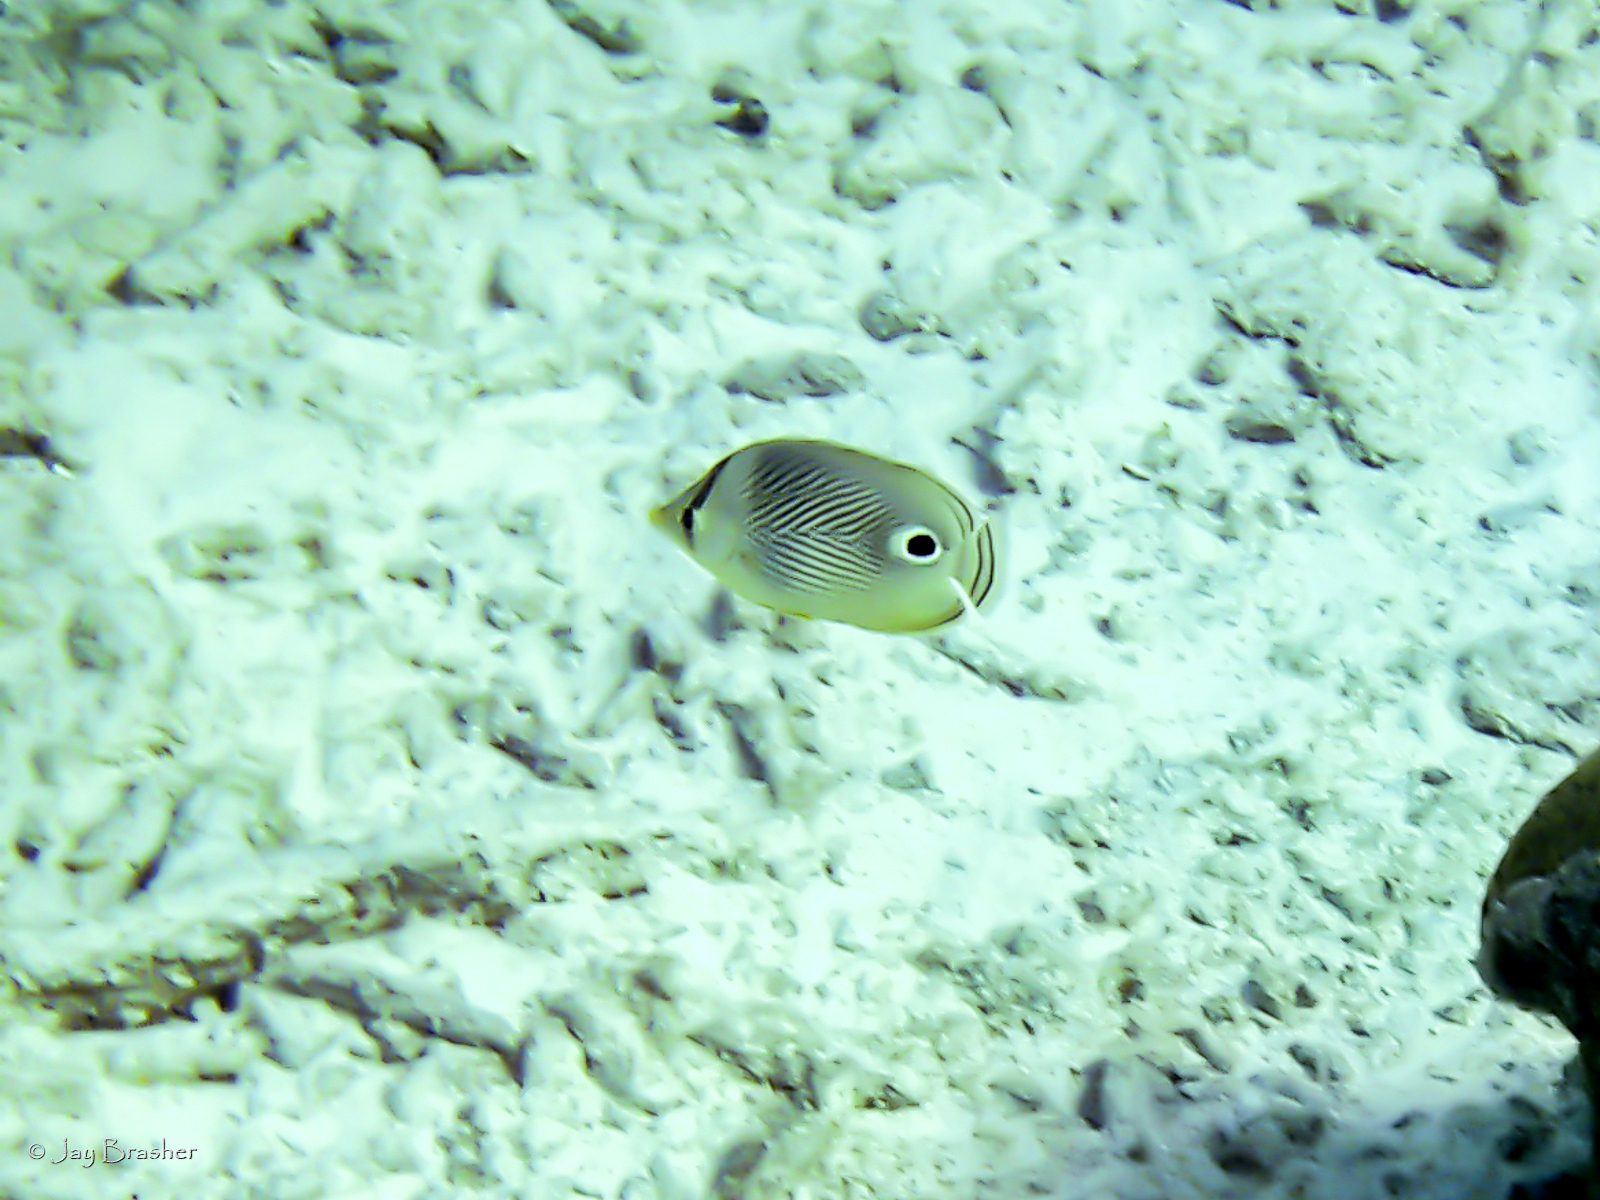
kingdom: Animalia
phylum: Chordata
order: Perciformes
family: Chaetodontidae
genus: Chaetodon
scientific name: Chaetodon capistratus
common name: Kete
